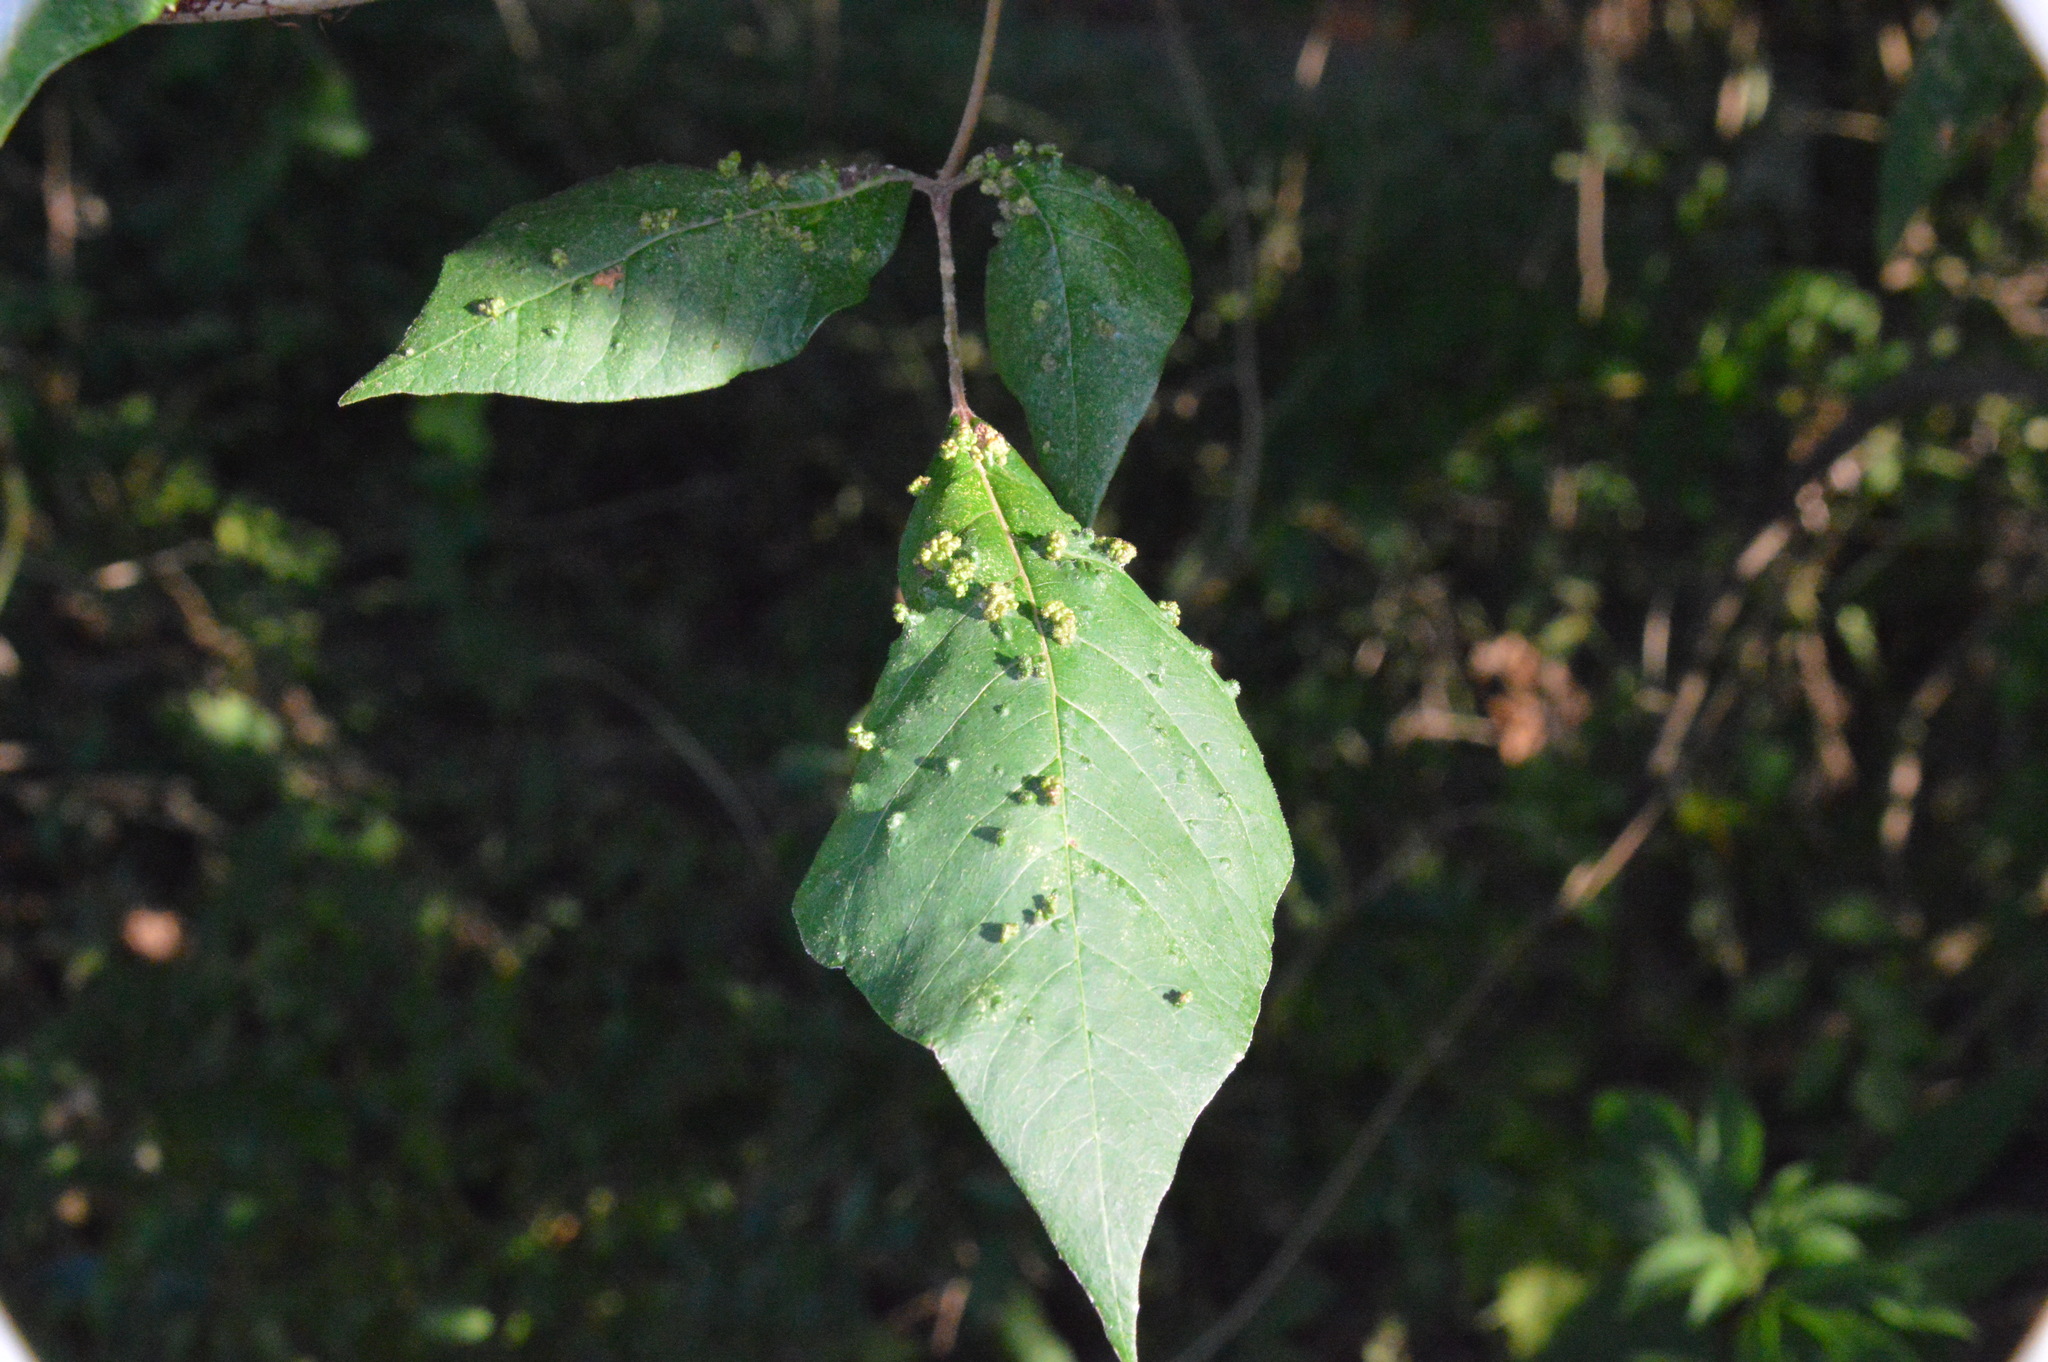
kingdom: Animalia
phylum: Arthropoda
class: Arachnida
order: Trombidiformes
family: Eriophyidae
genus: Aculops
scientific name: Aculops
